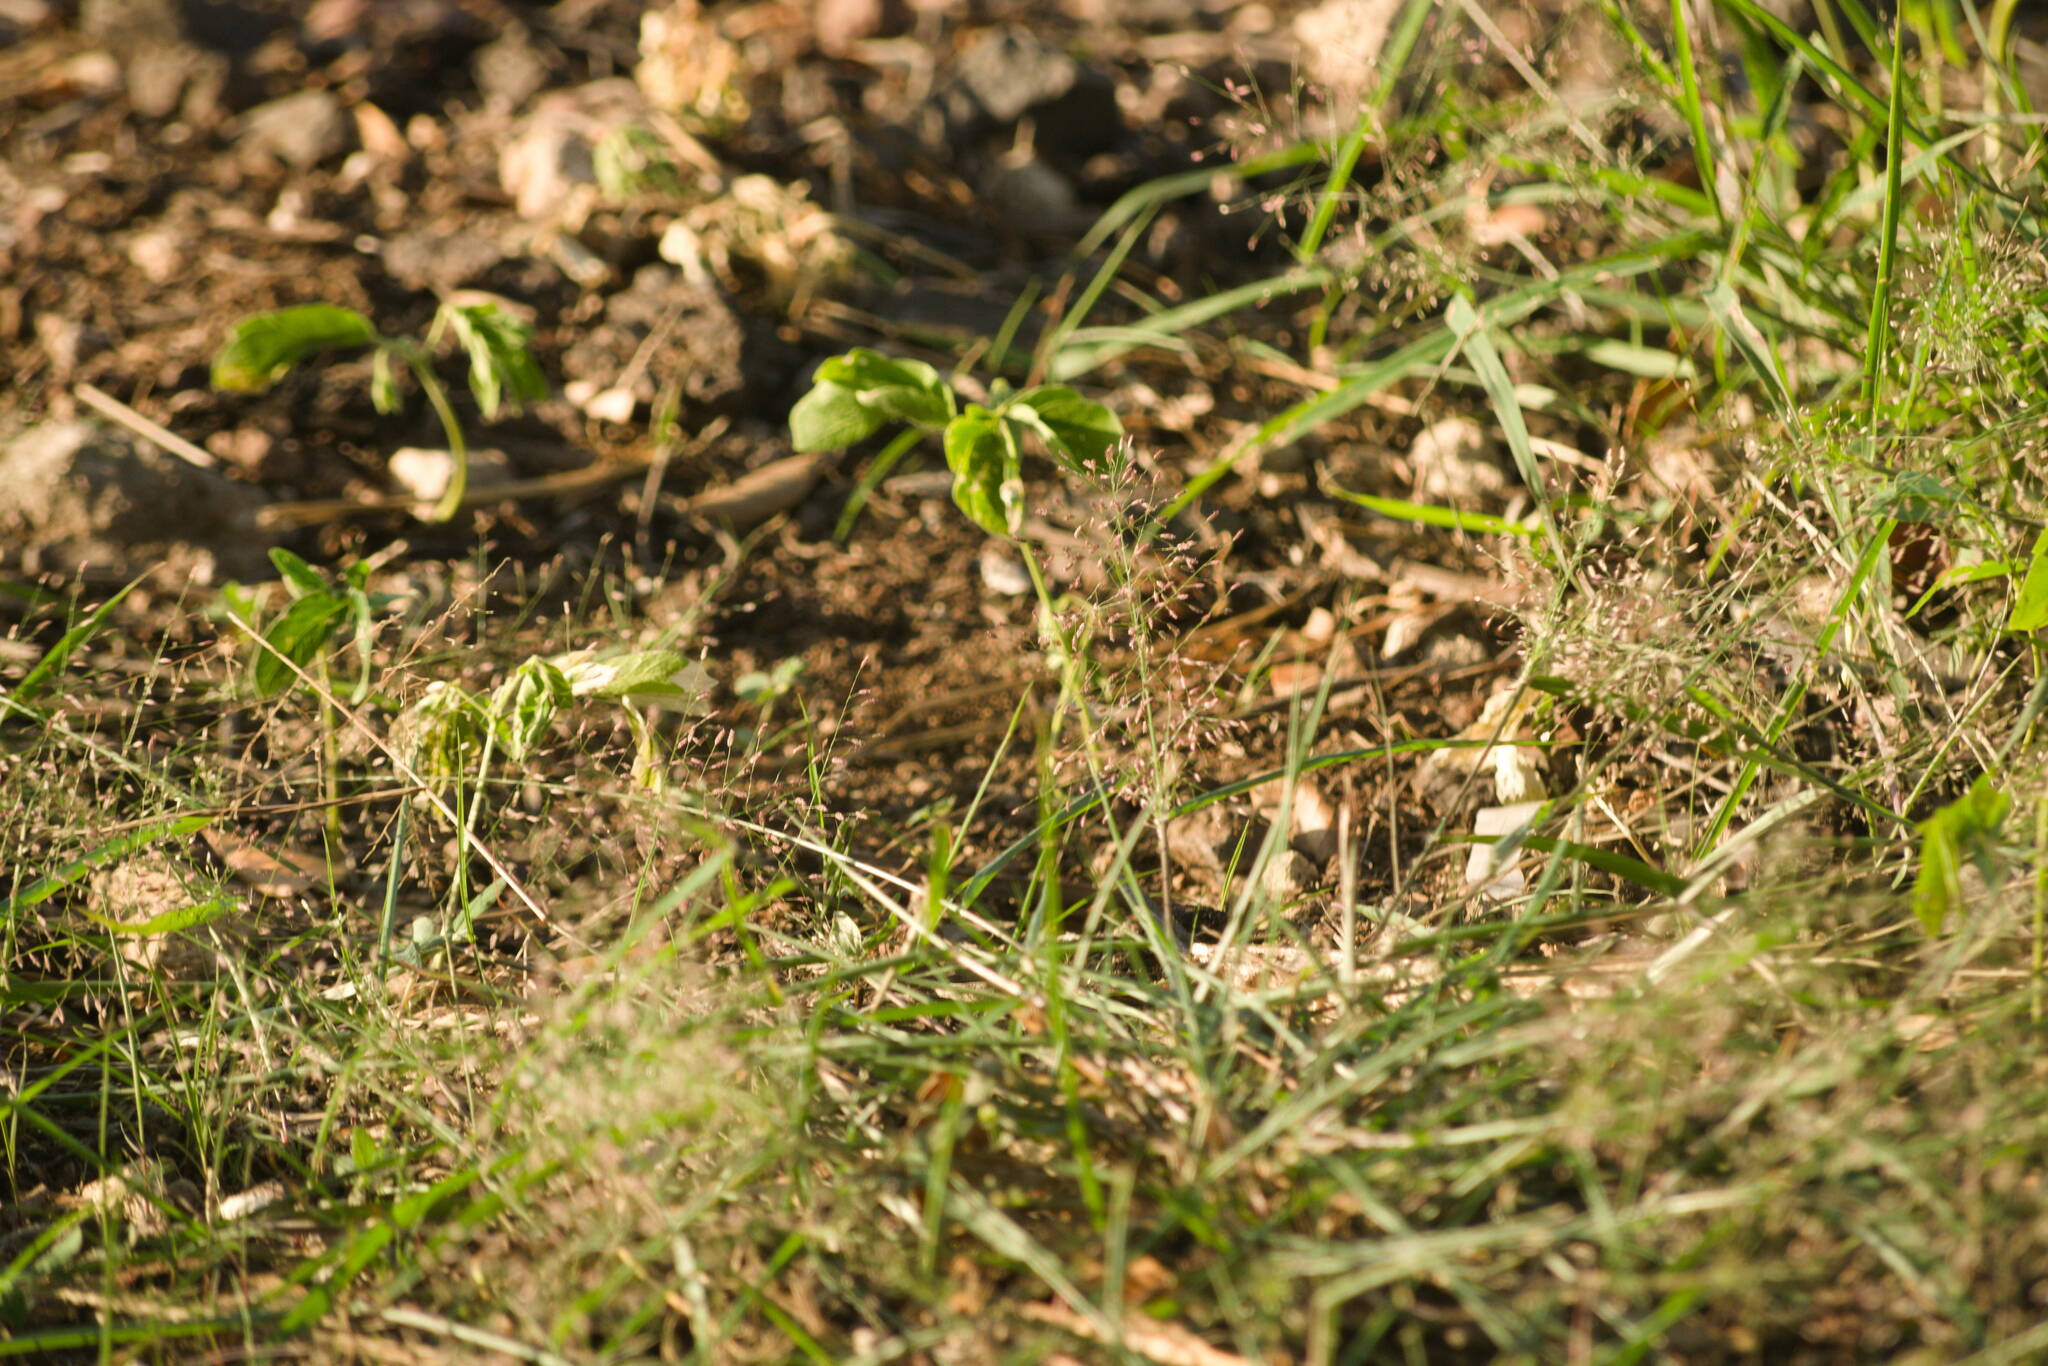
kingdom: Plantae
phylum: Tracheophyta
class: Liliopsida
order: Poales
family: Poaceae
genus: Eragrostis
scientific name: Eragrostis tenella
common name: Japanese lovegrass
